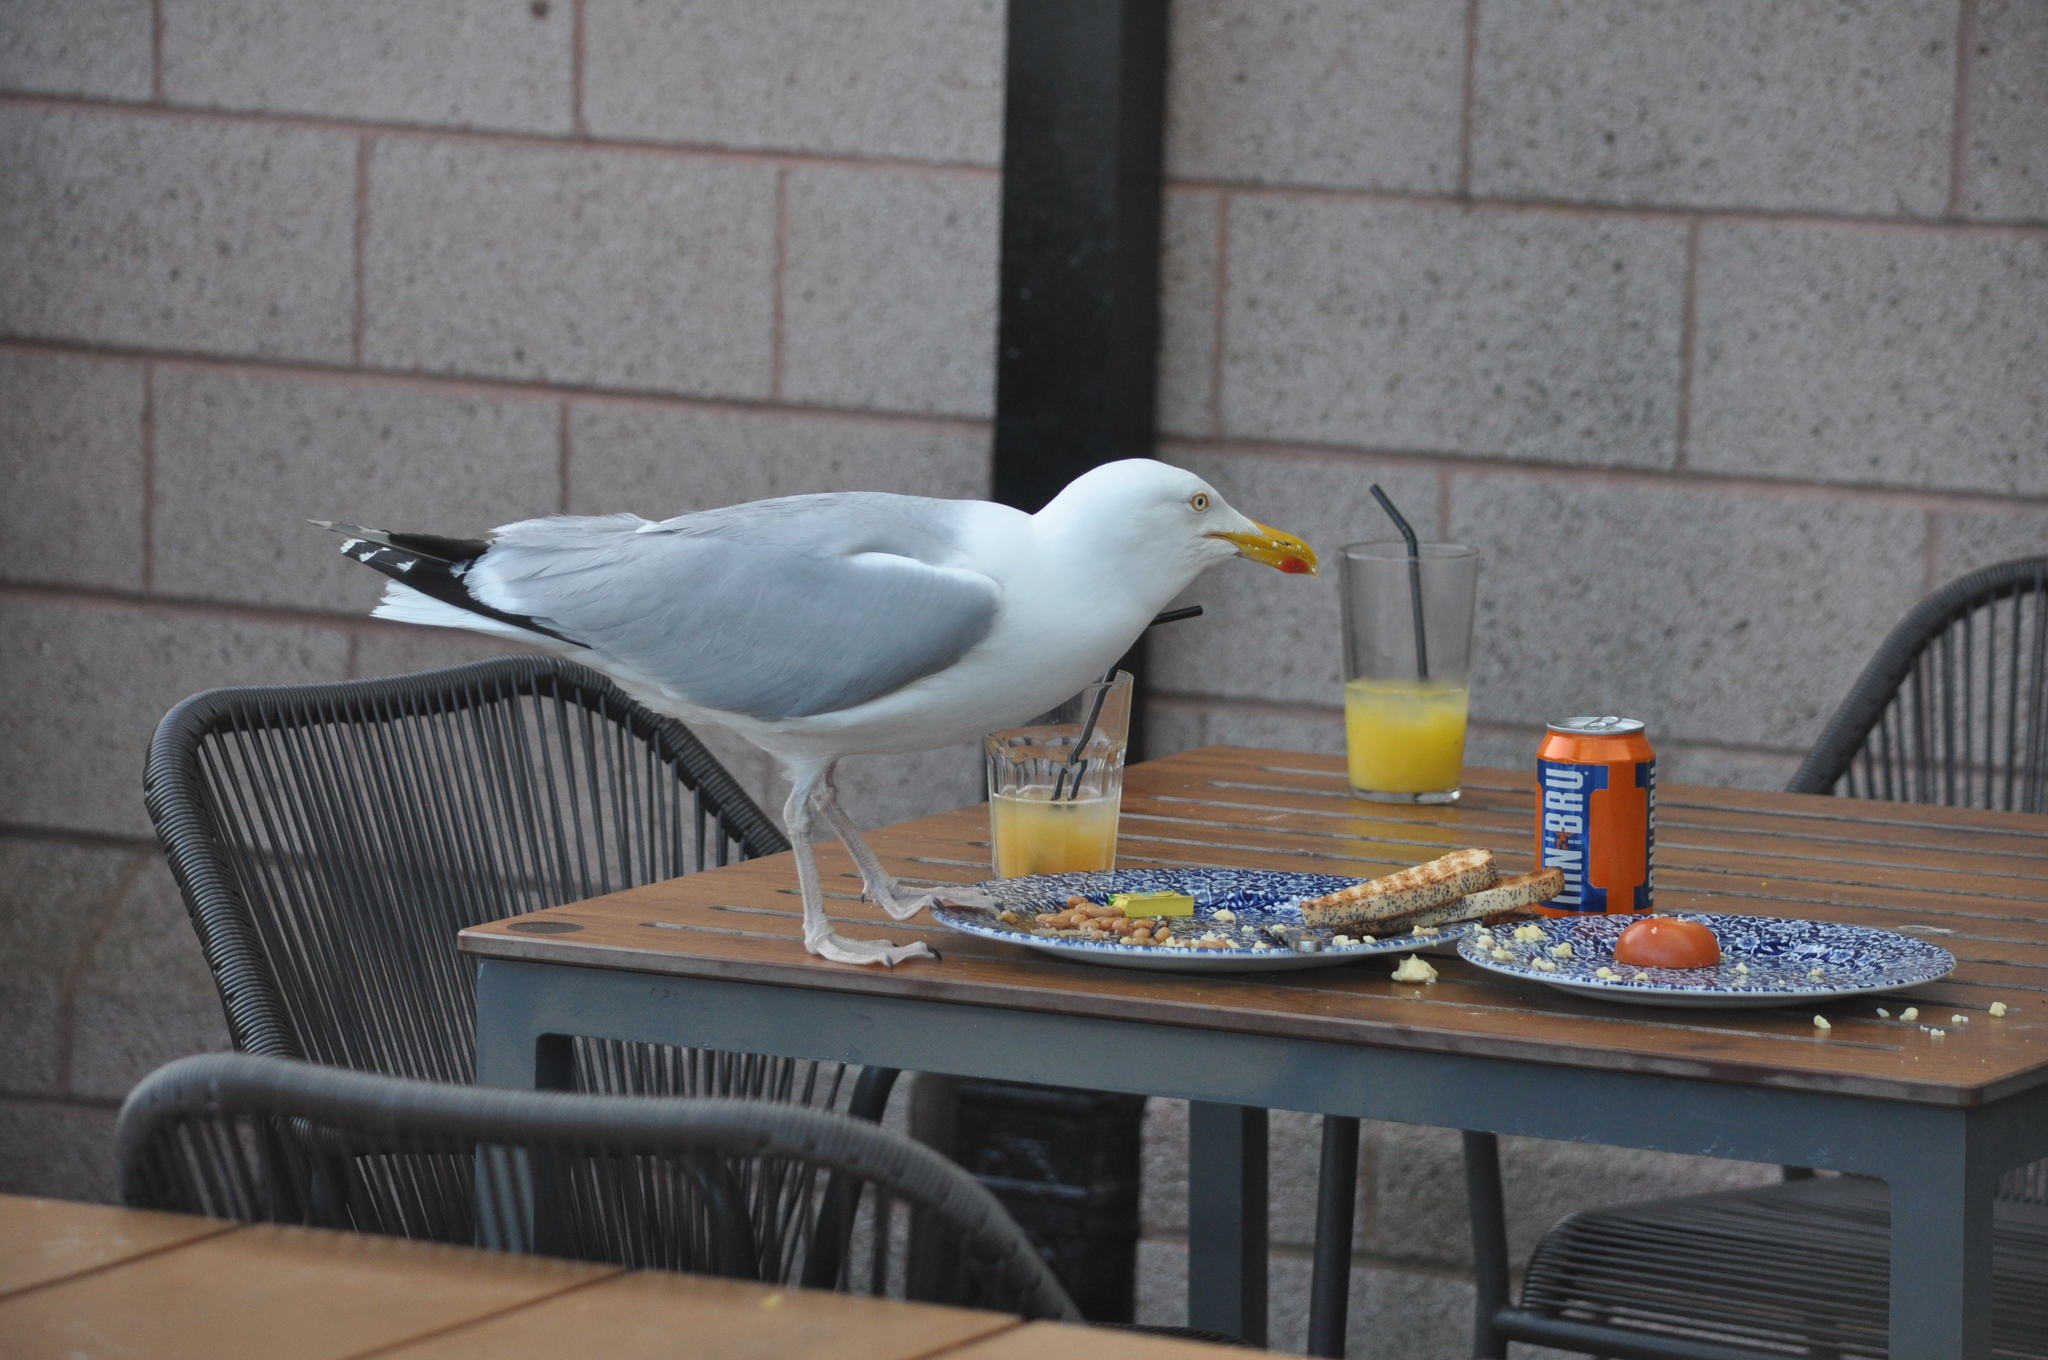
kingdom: Animalia
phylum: Chordata
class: Aves
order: Charadriiformes
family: Laridae
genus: Larus
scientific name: Larus argentatus
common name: Herring gull
